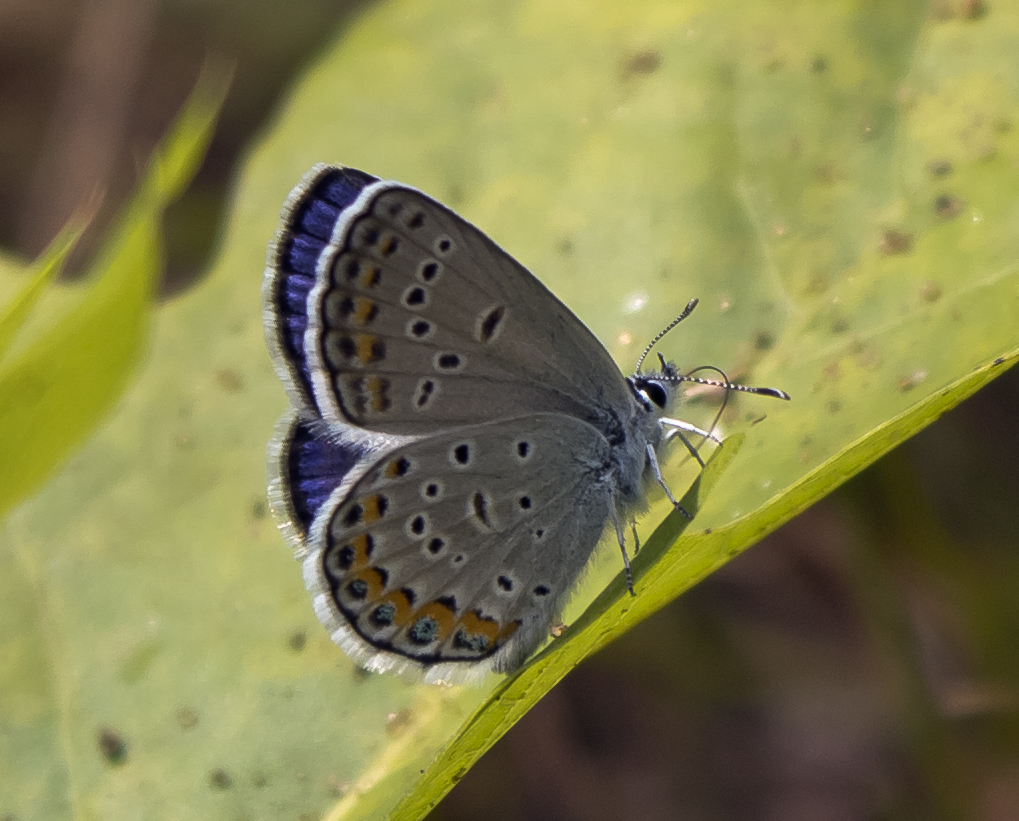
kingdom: Animalia
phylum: Arthropoda
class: Insecta
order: Lepidoptera
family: Lycaenidae
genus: Plebejus
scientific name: Plebejus samuelis
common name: Karner blue
